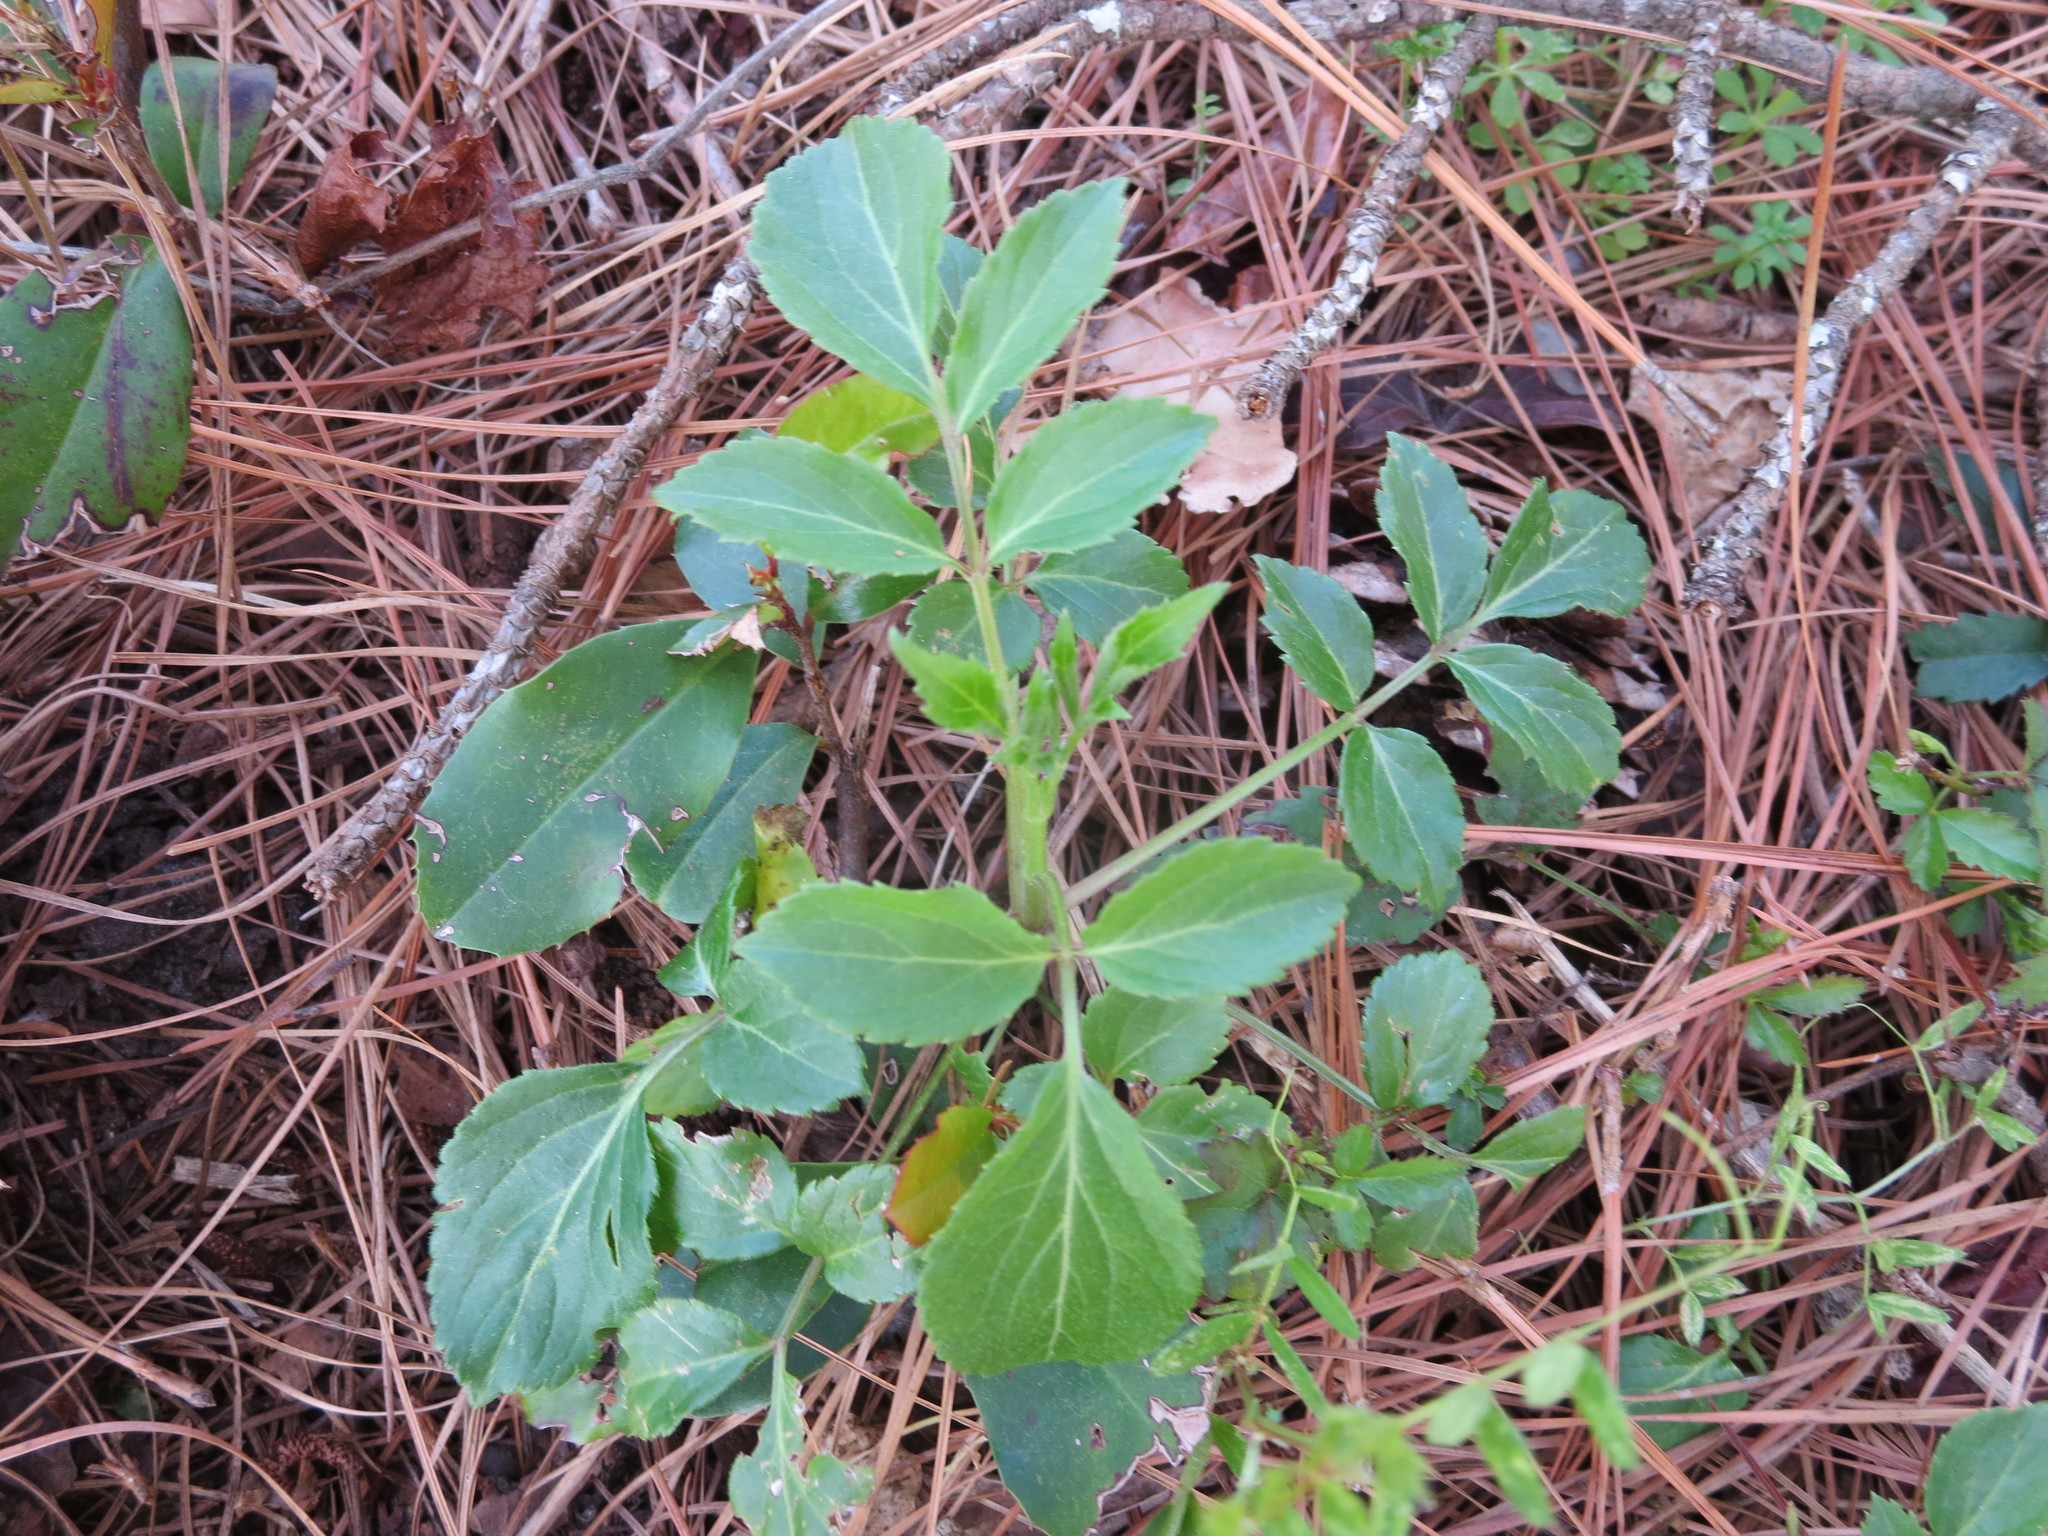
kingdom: Plantae
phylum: Tracheophyta
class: Magnoliopsida
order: Dipsacales
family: Viburnaceae
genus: Sambucus
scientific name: Sambucus canadensis
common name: American elder
